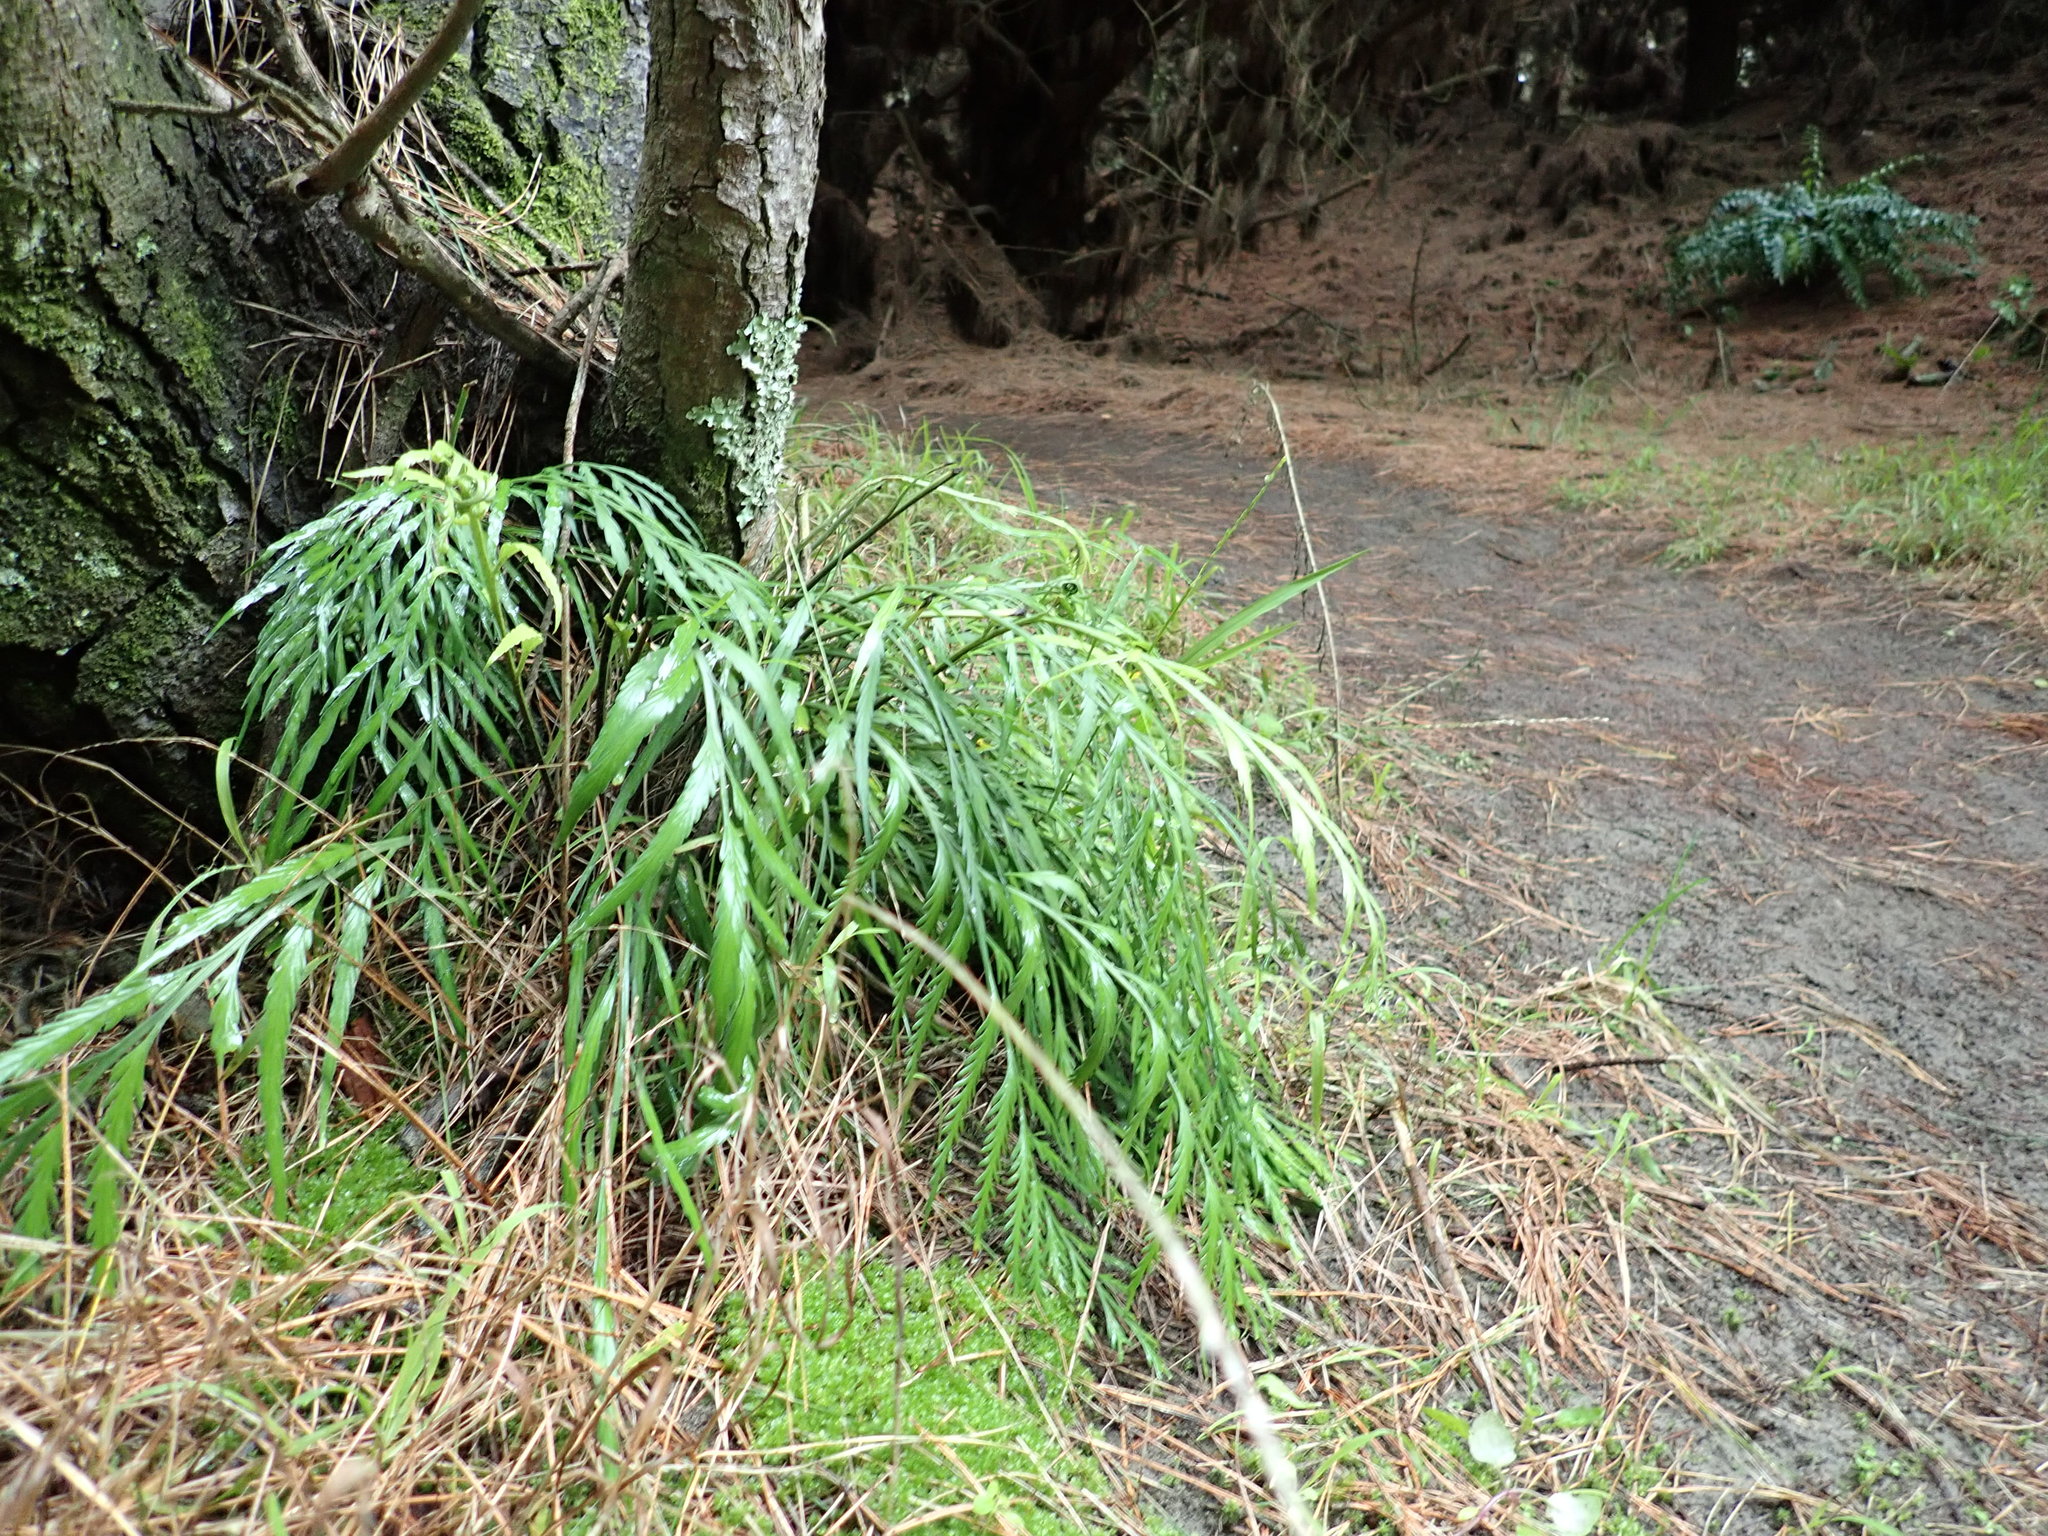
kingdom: Plantae
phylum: Tracheophyta
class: Polypodiopsida
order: Polypodiales
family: Aspleniaceae
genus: Asplenium
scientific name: Asplenium flaccidum
